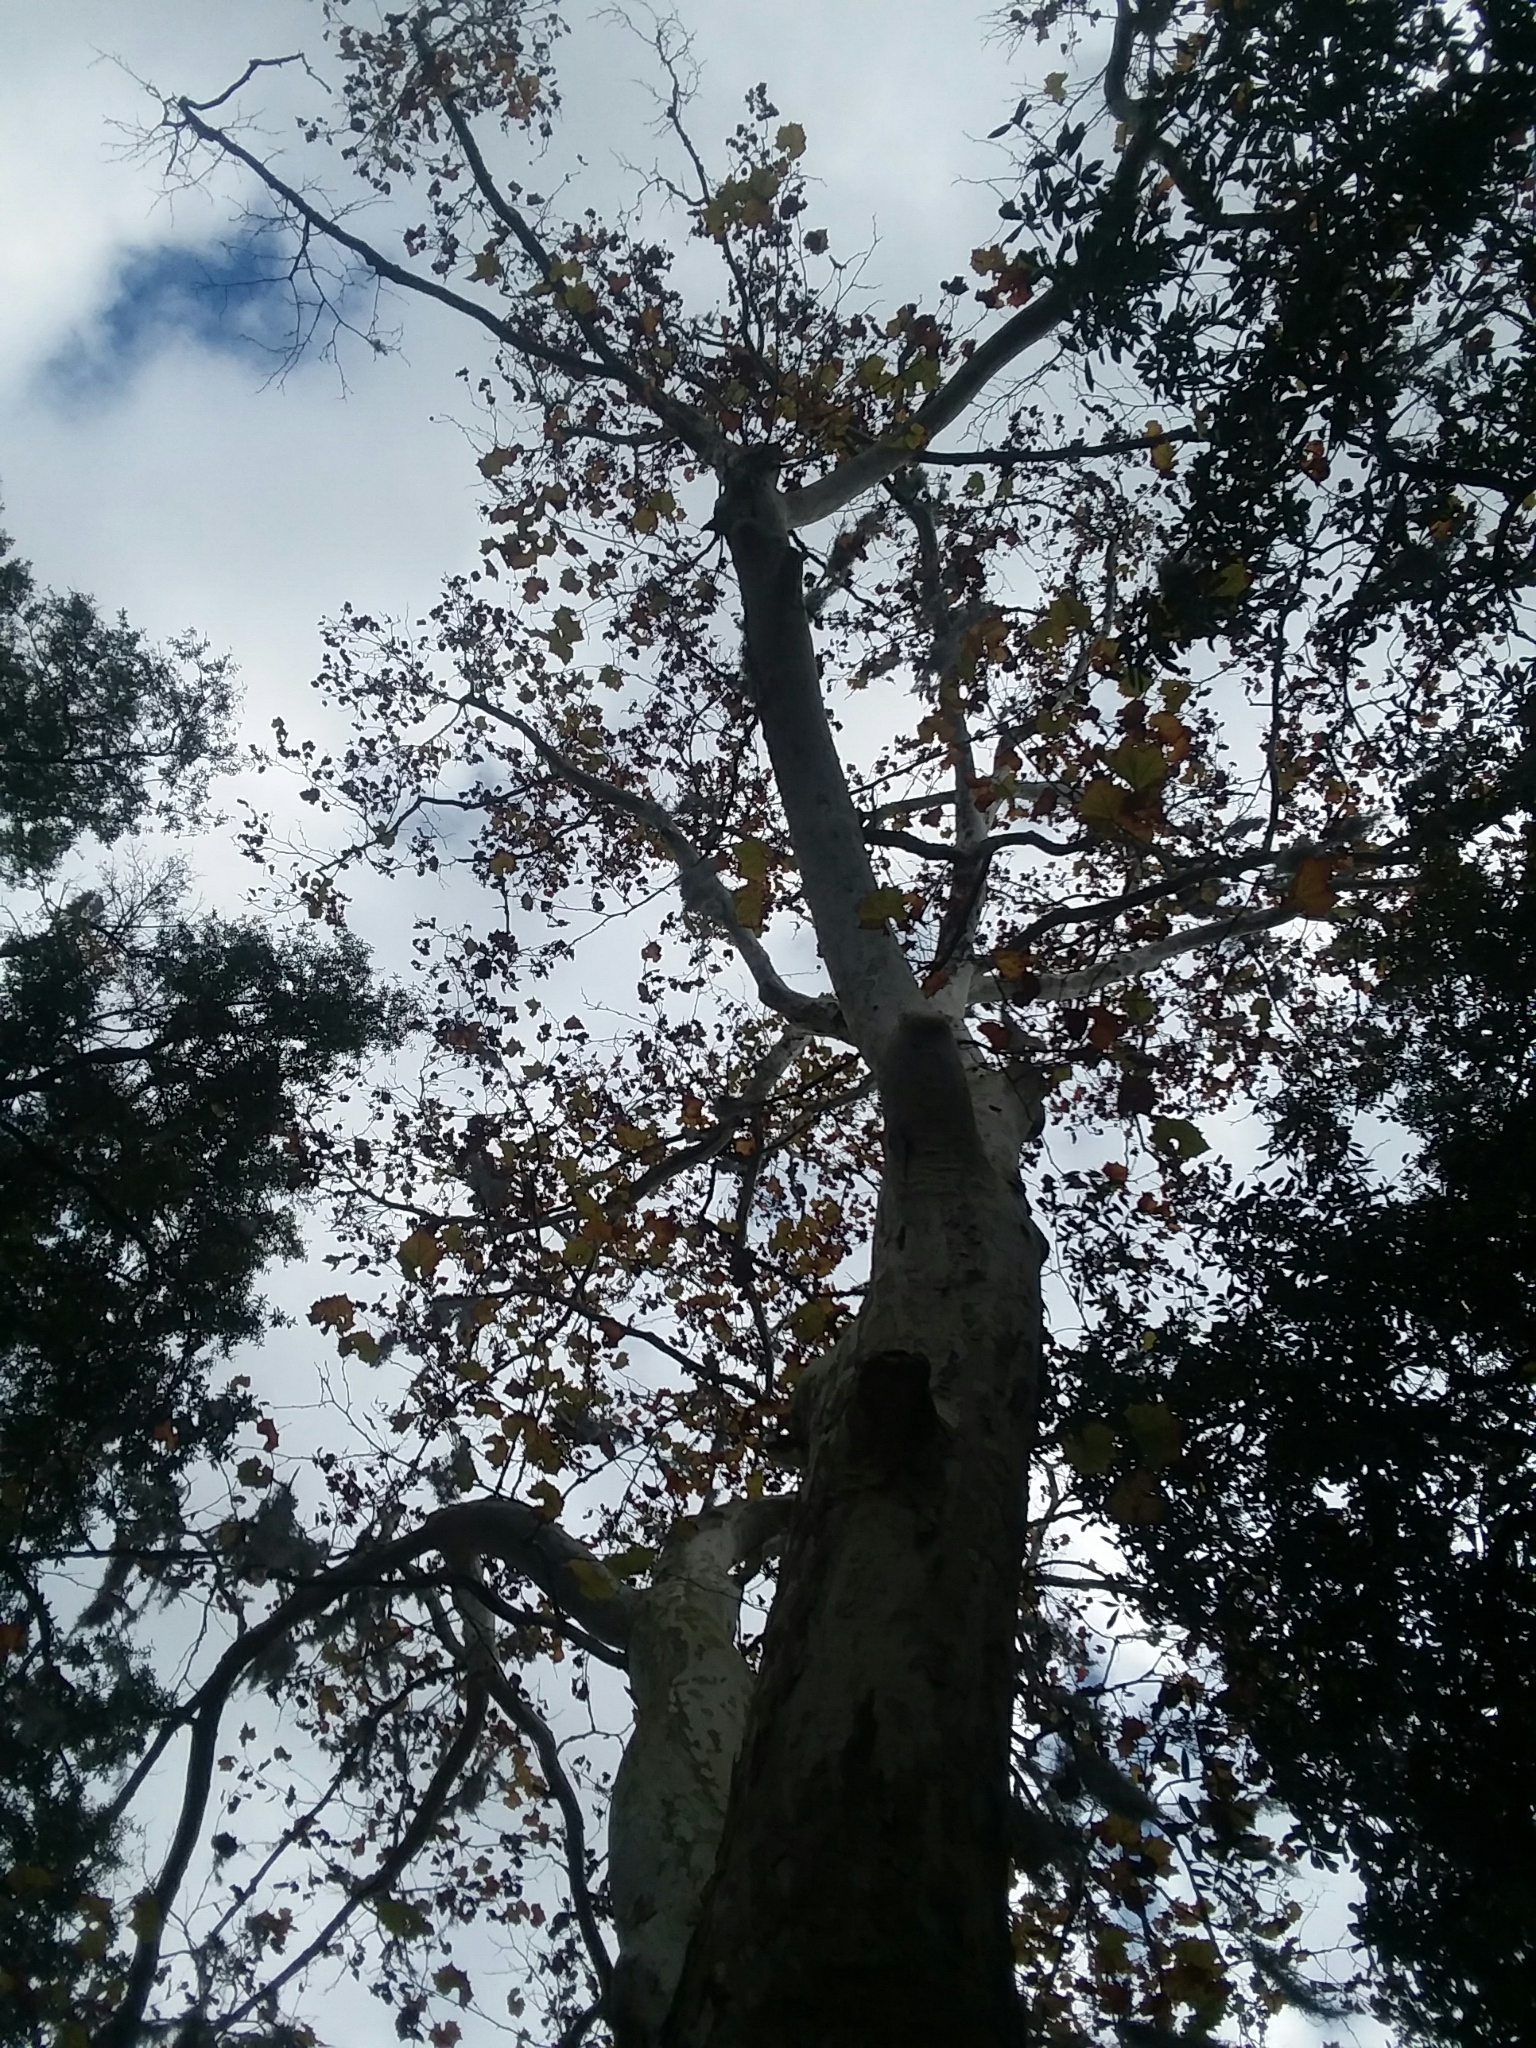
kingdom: Plantae
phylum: Tracheophyta
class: Magnoliopsida
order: Proteales
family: Platanaceae
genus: Platanus
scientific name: Platanus occidentalis
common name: American sycamore
